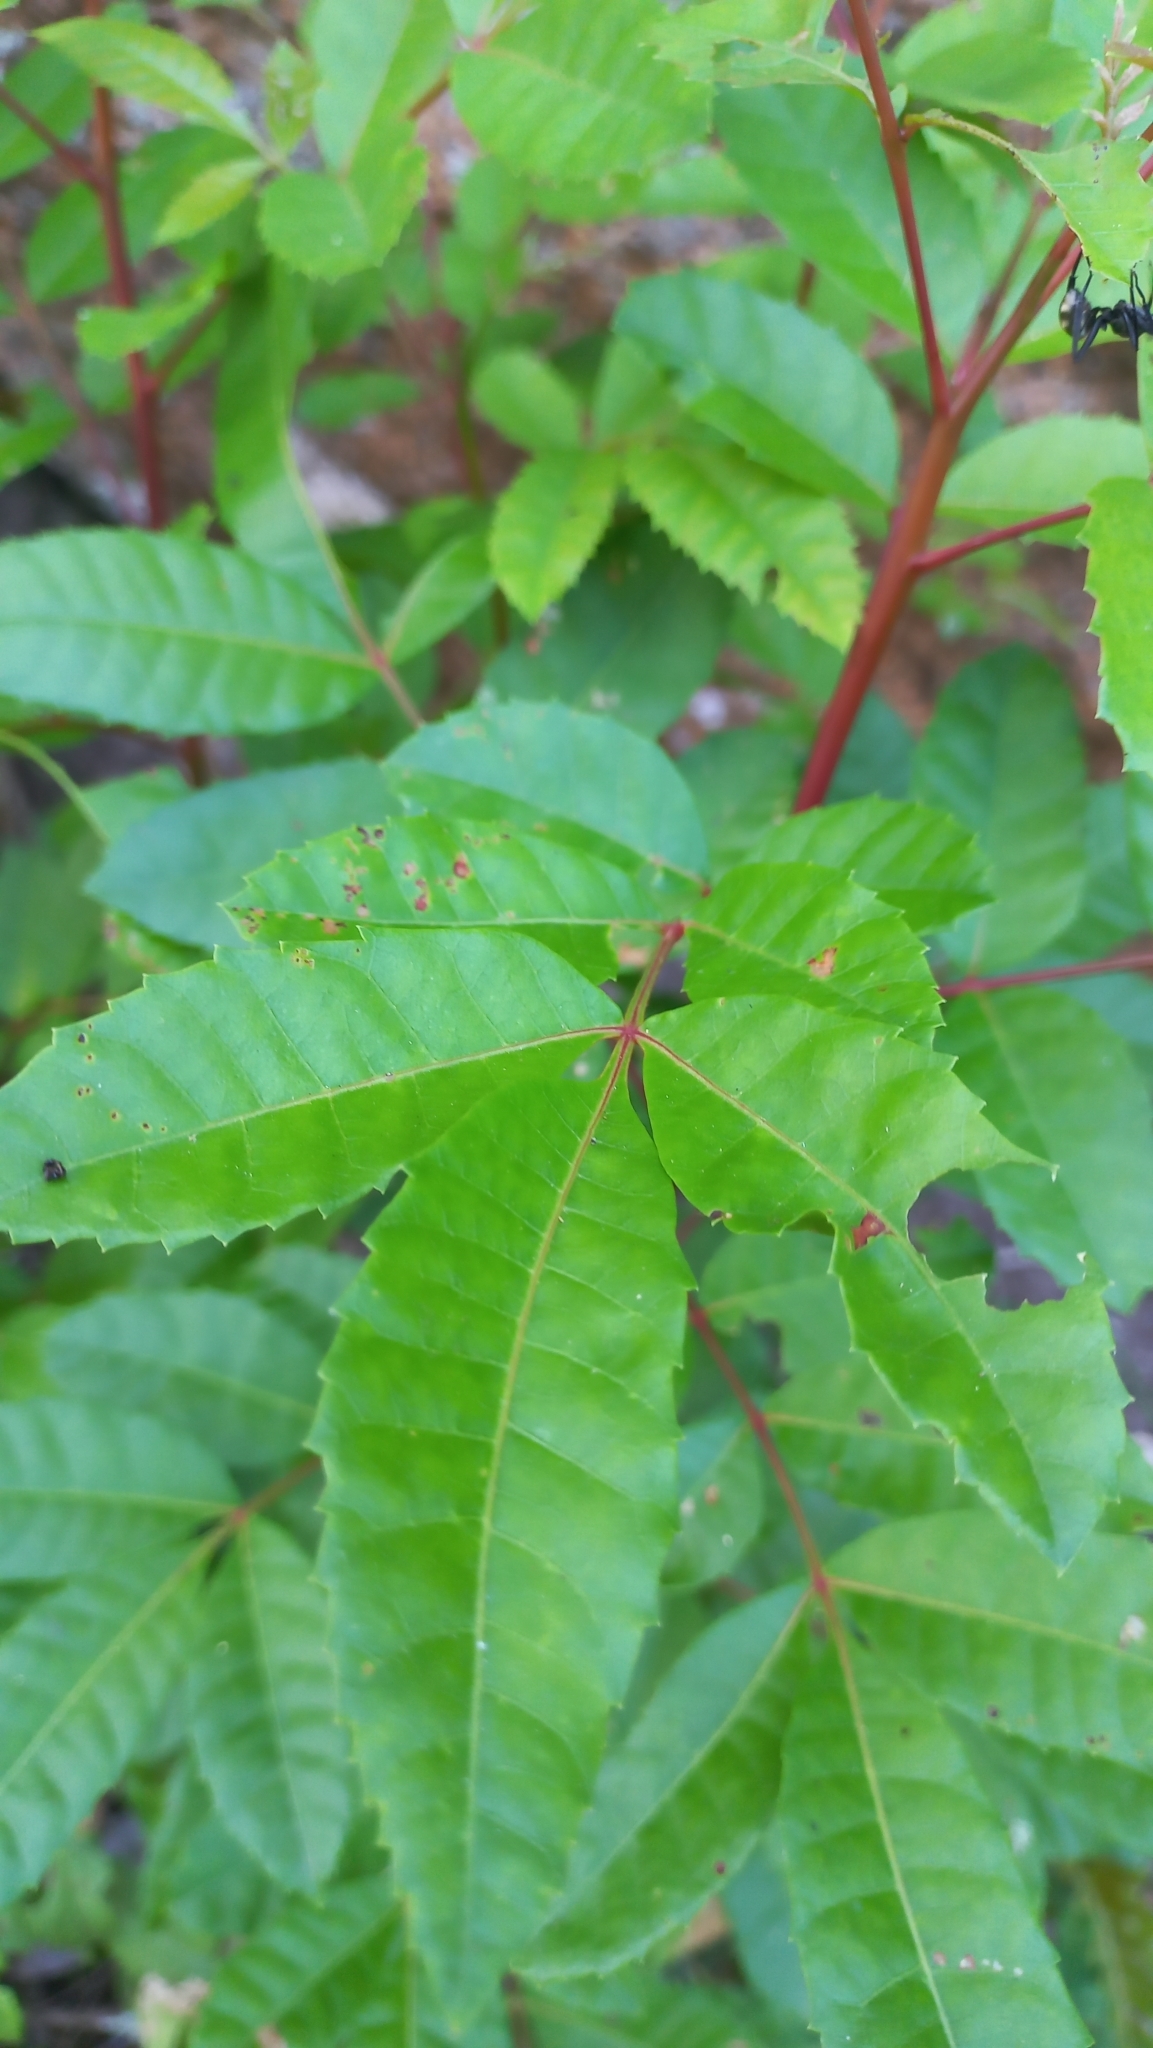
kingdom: Plantae
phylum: Tracheophyta
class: Magnoliopsida
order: Sapindales
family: Anacardiaceae
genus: Schinus
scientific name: Schinus terebinthifolia
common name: Brazilian peppertree
